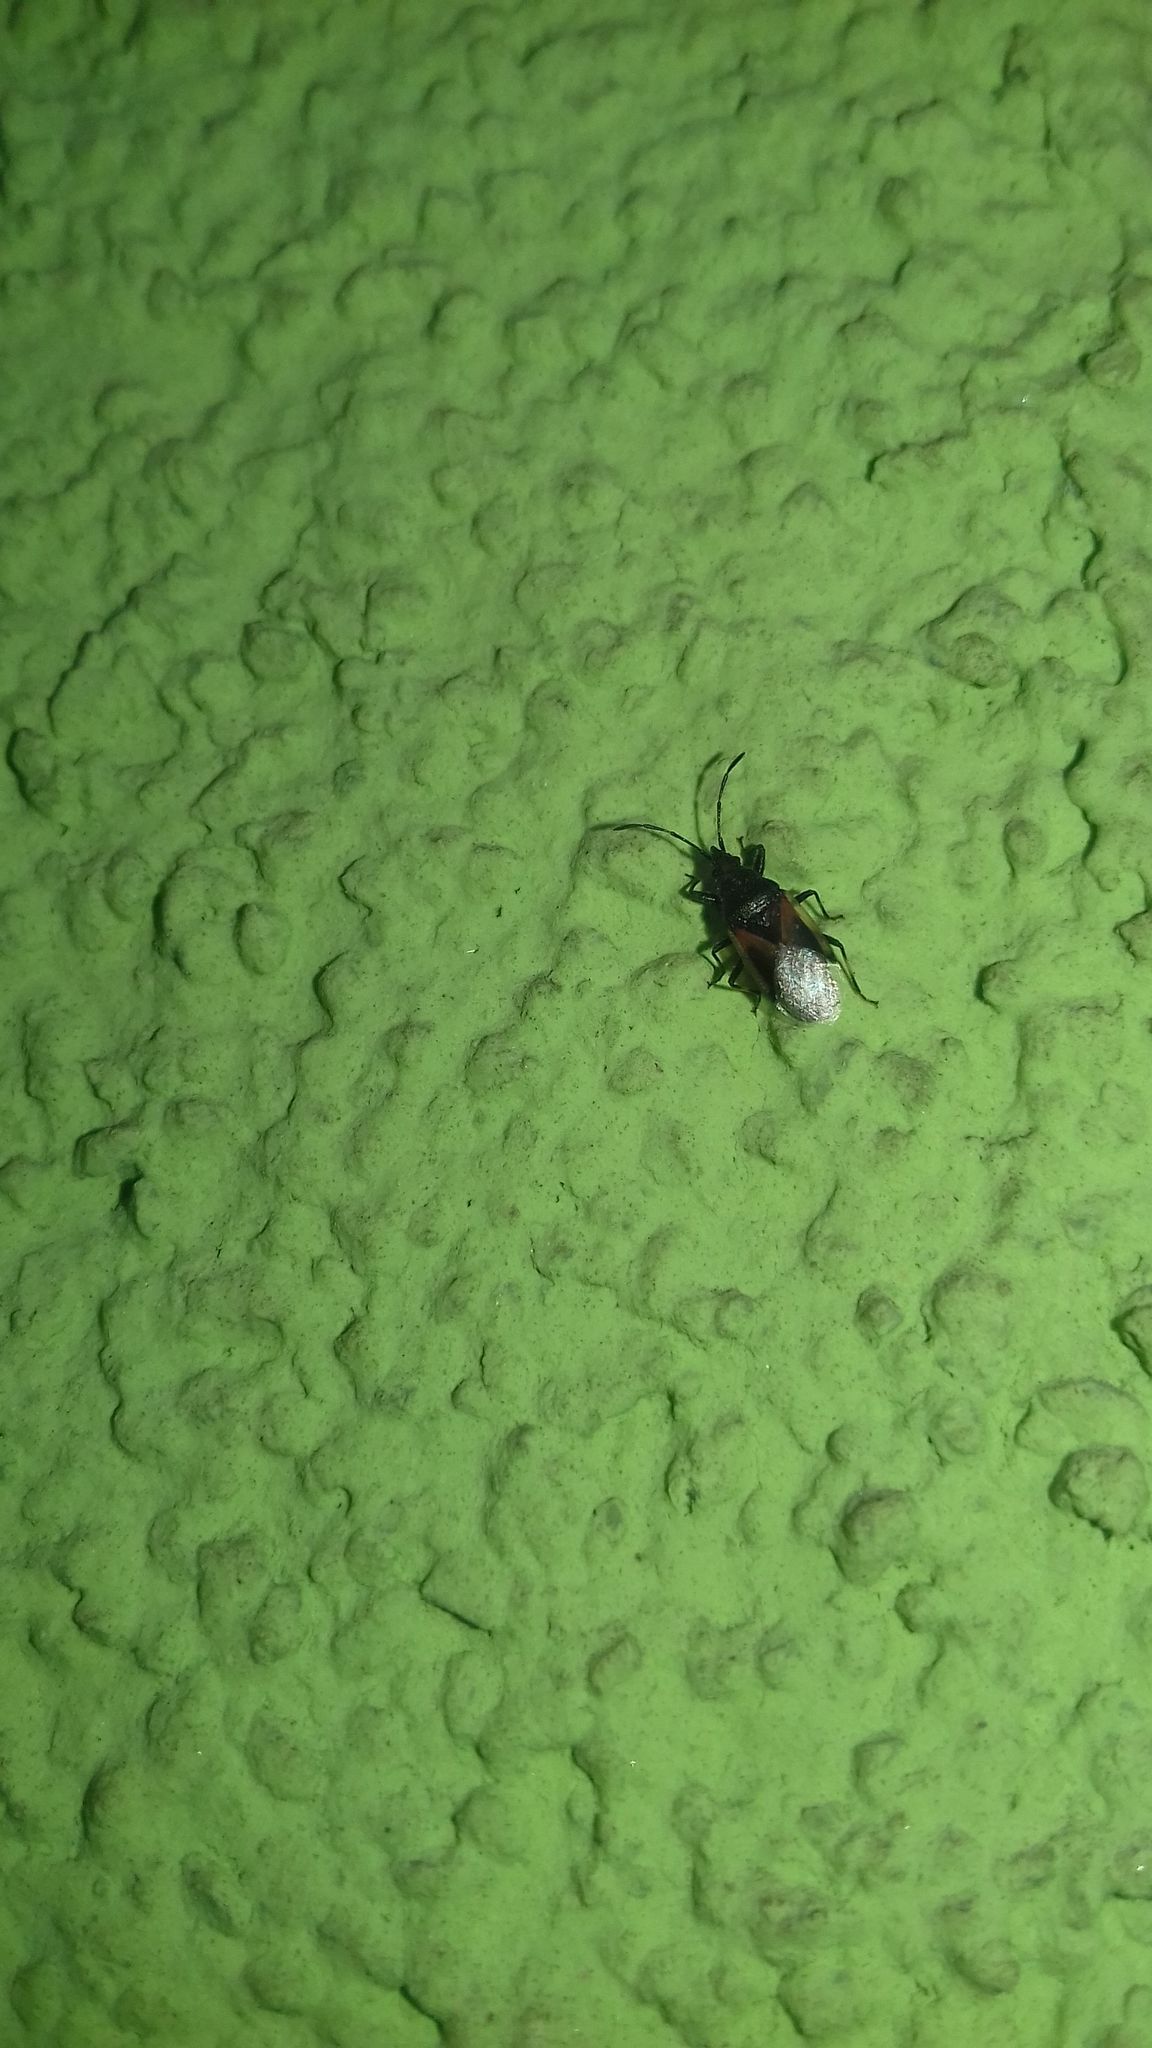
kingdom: Animalia
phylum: Arthropoda
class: Insecta
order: Hemiptera
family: Oxycarenidae
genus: Oxycarenus
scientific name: Oxycarenus lavaterae
